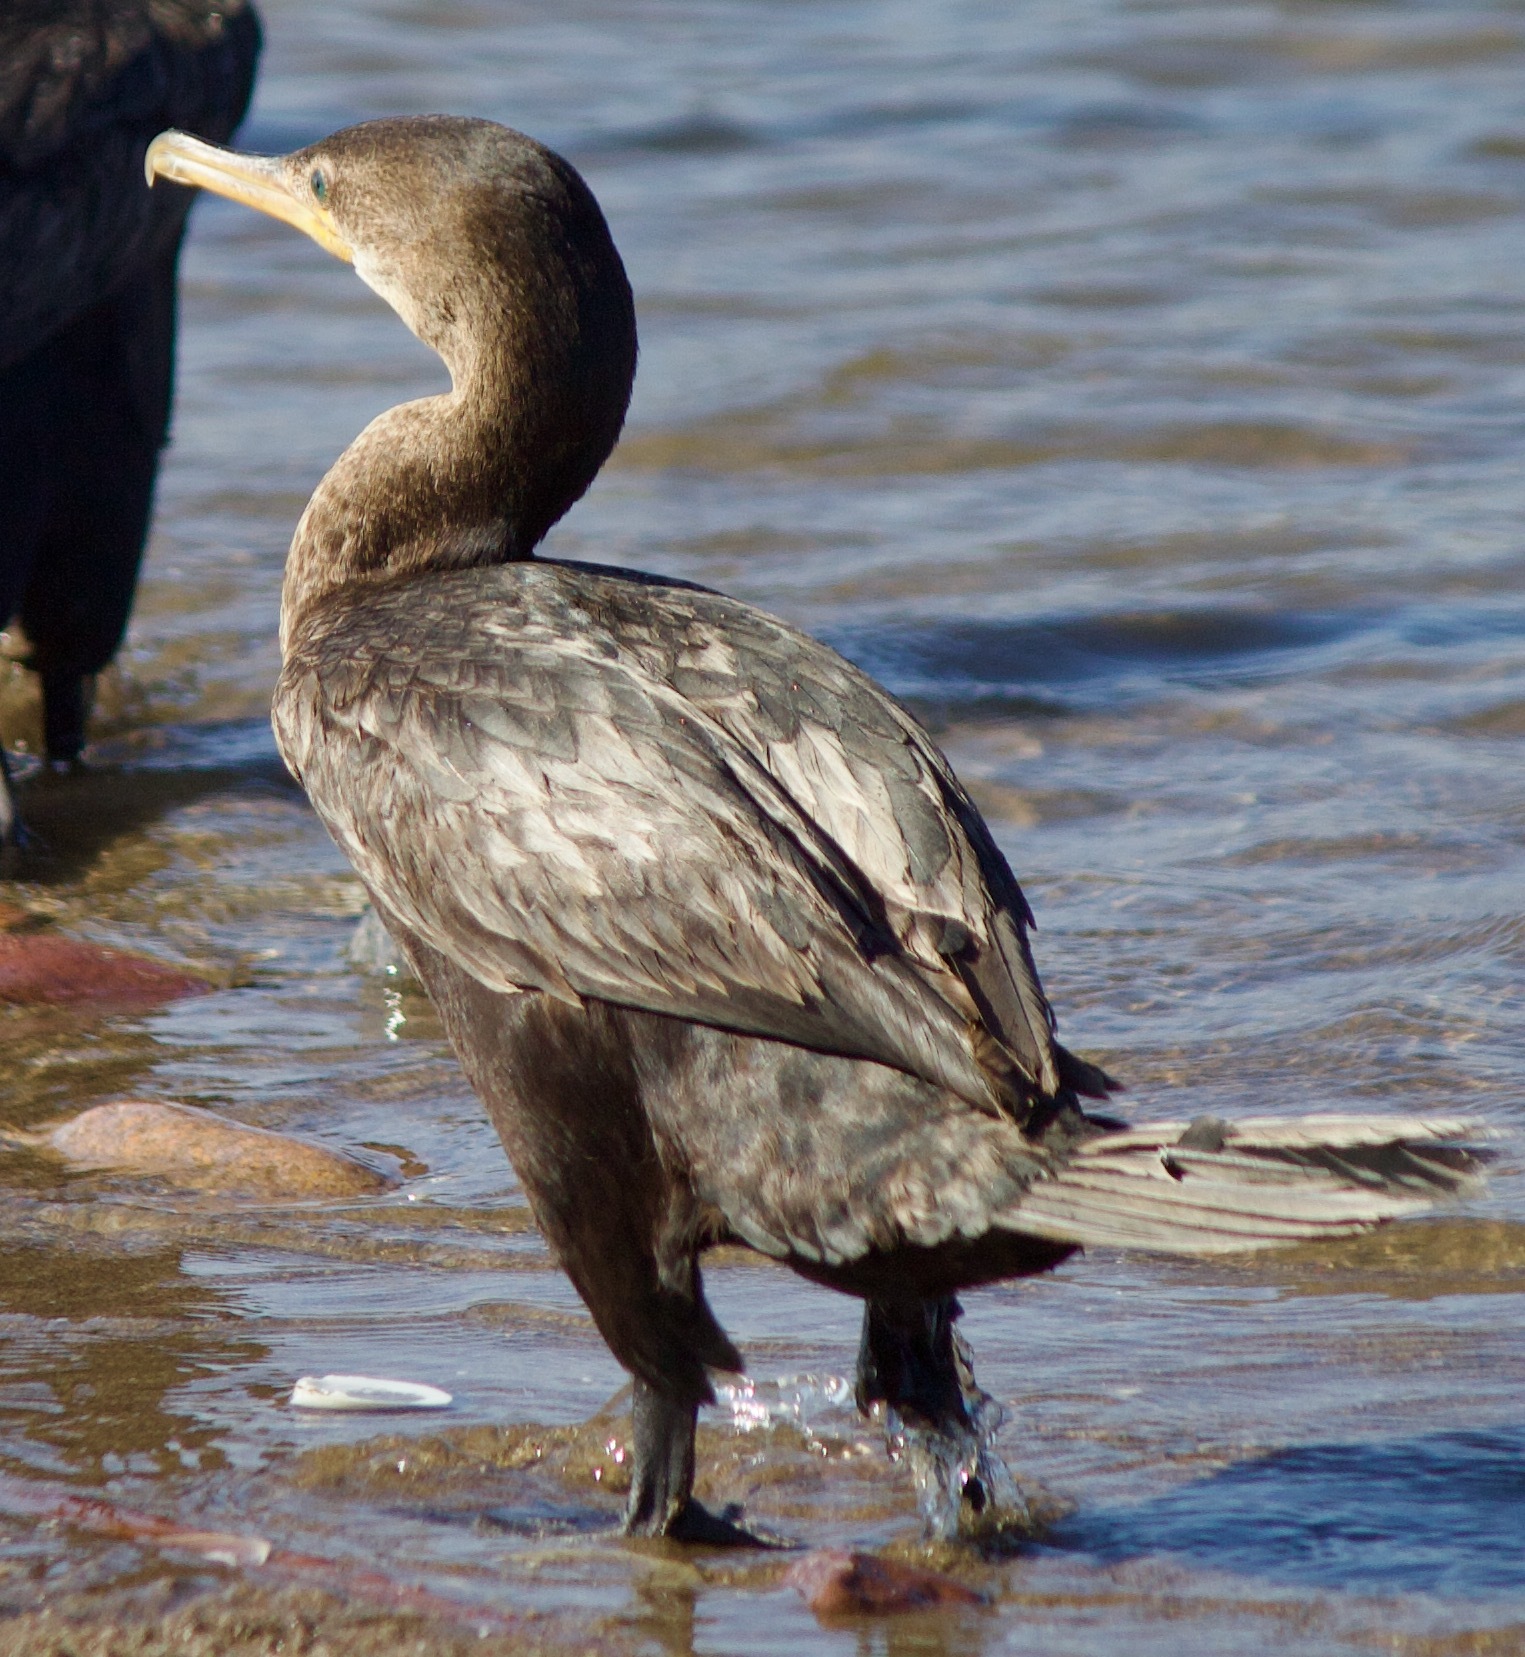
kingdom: Animalia
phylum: Chordata
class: Aves
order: Suliformes
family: Phalacrocoracidae
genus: Phalacrocorax
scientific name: Phalacrocorax brasilianus
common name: Neotropic cormorant
